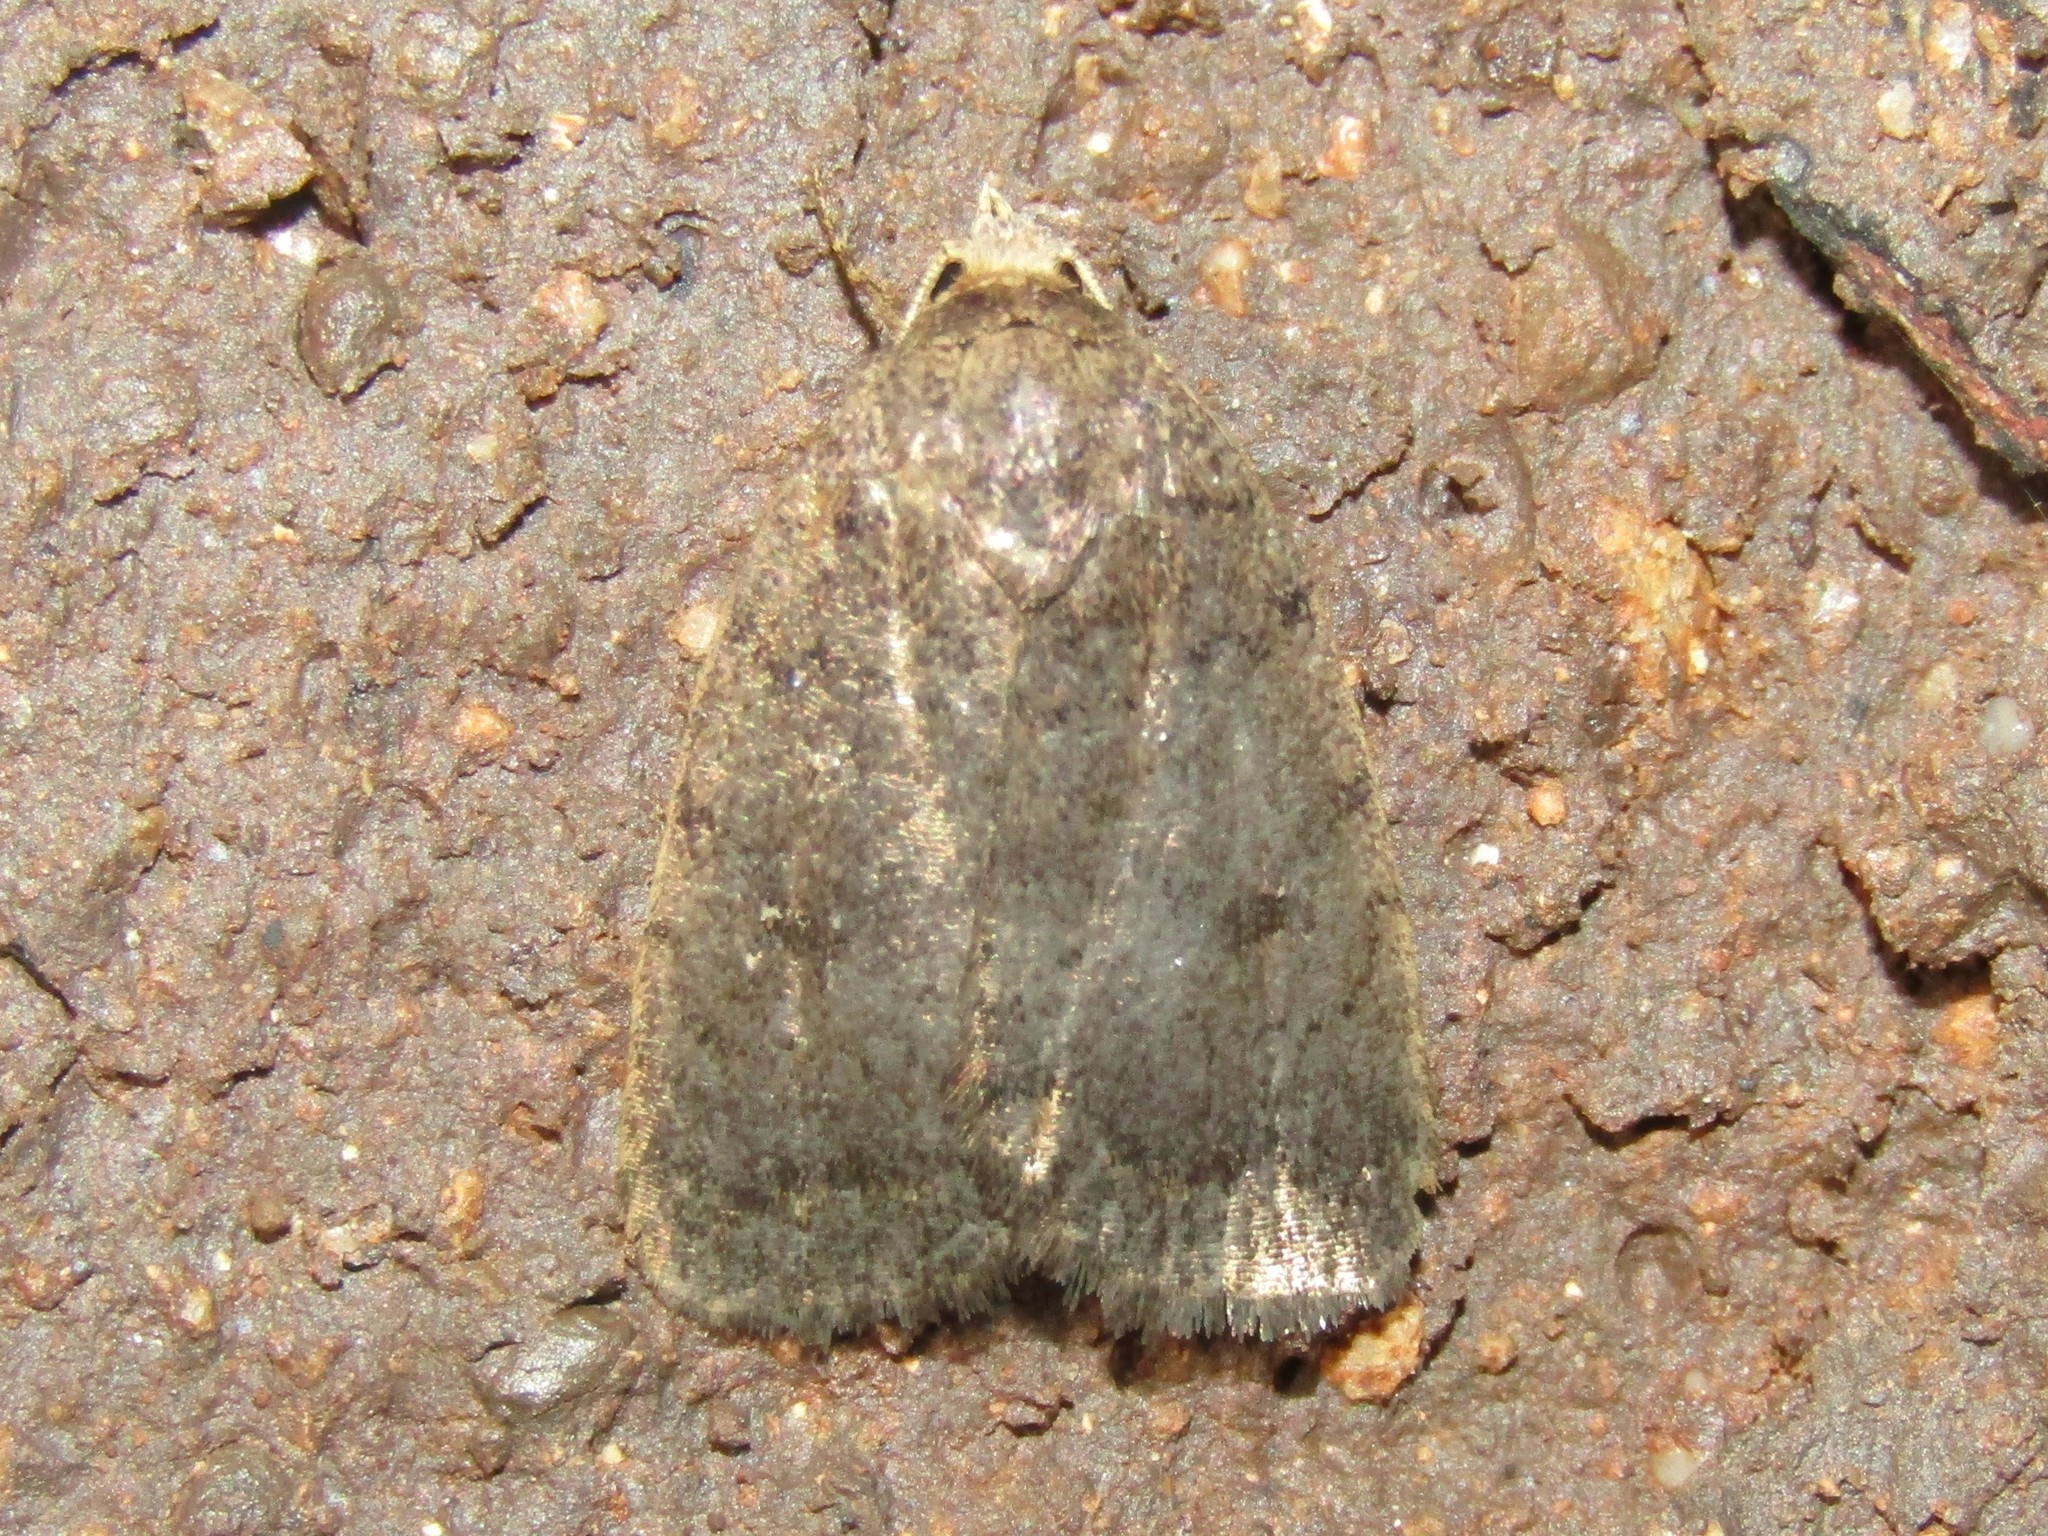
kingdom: Animalia
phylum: Arthropoda
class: Insecta
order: Lepidoptera
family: Noctuidae
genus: Athetis
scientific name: Athetis tarda
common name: Slowpoke moth
